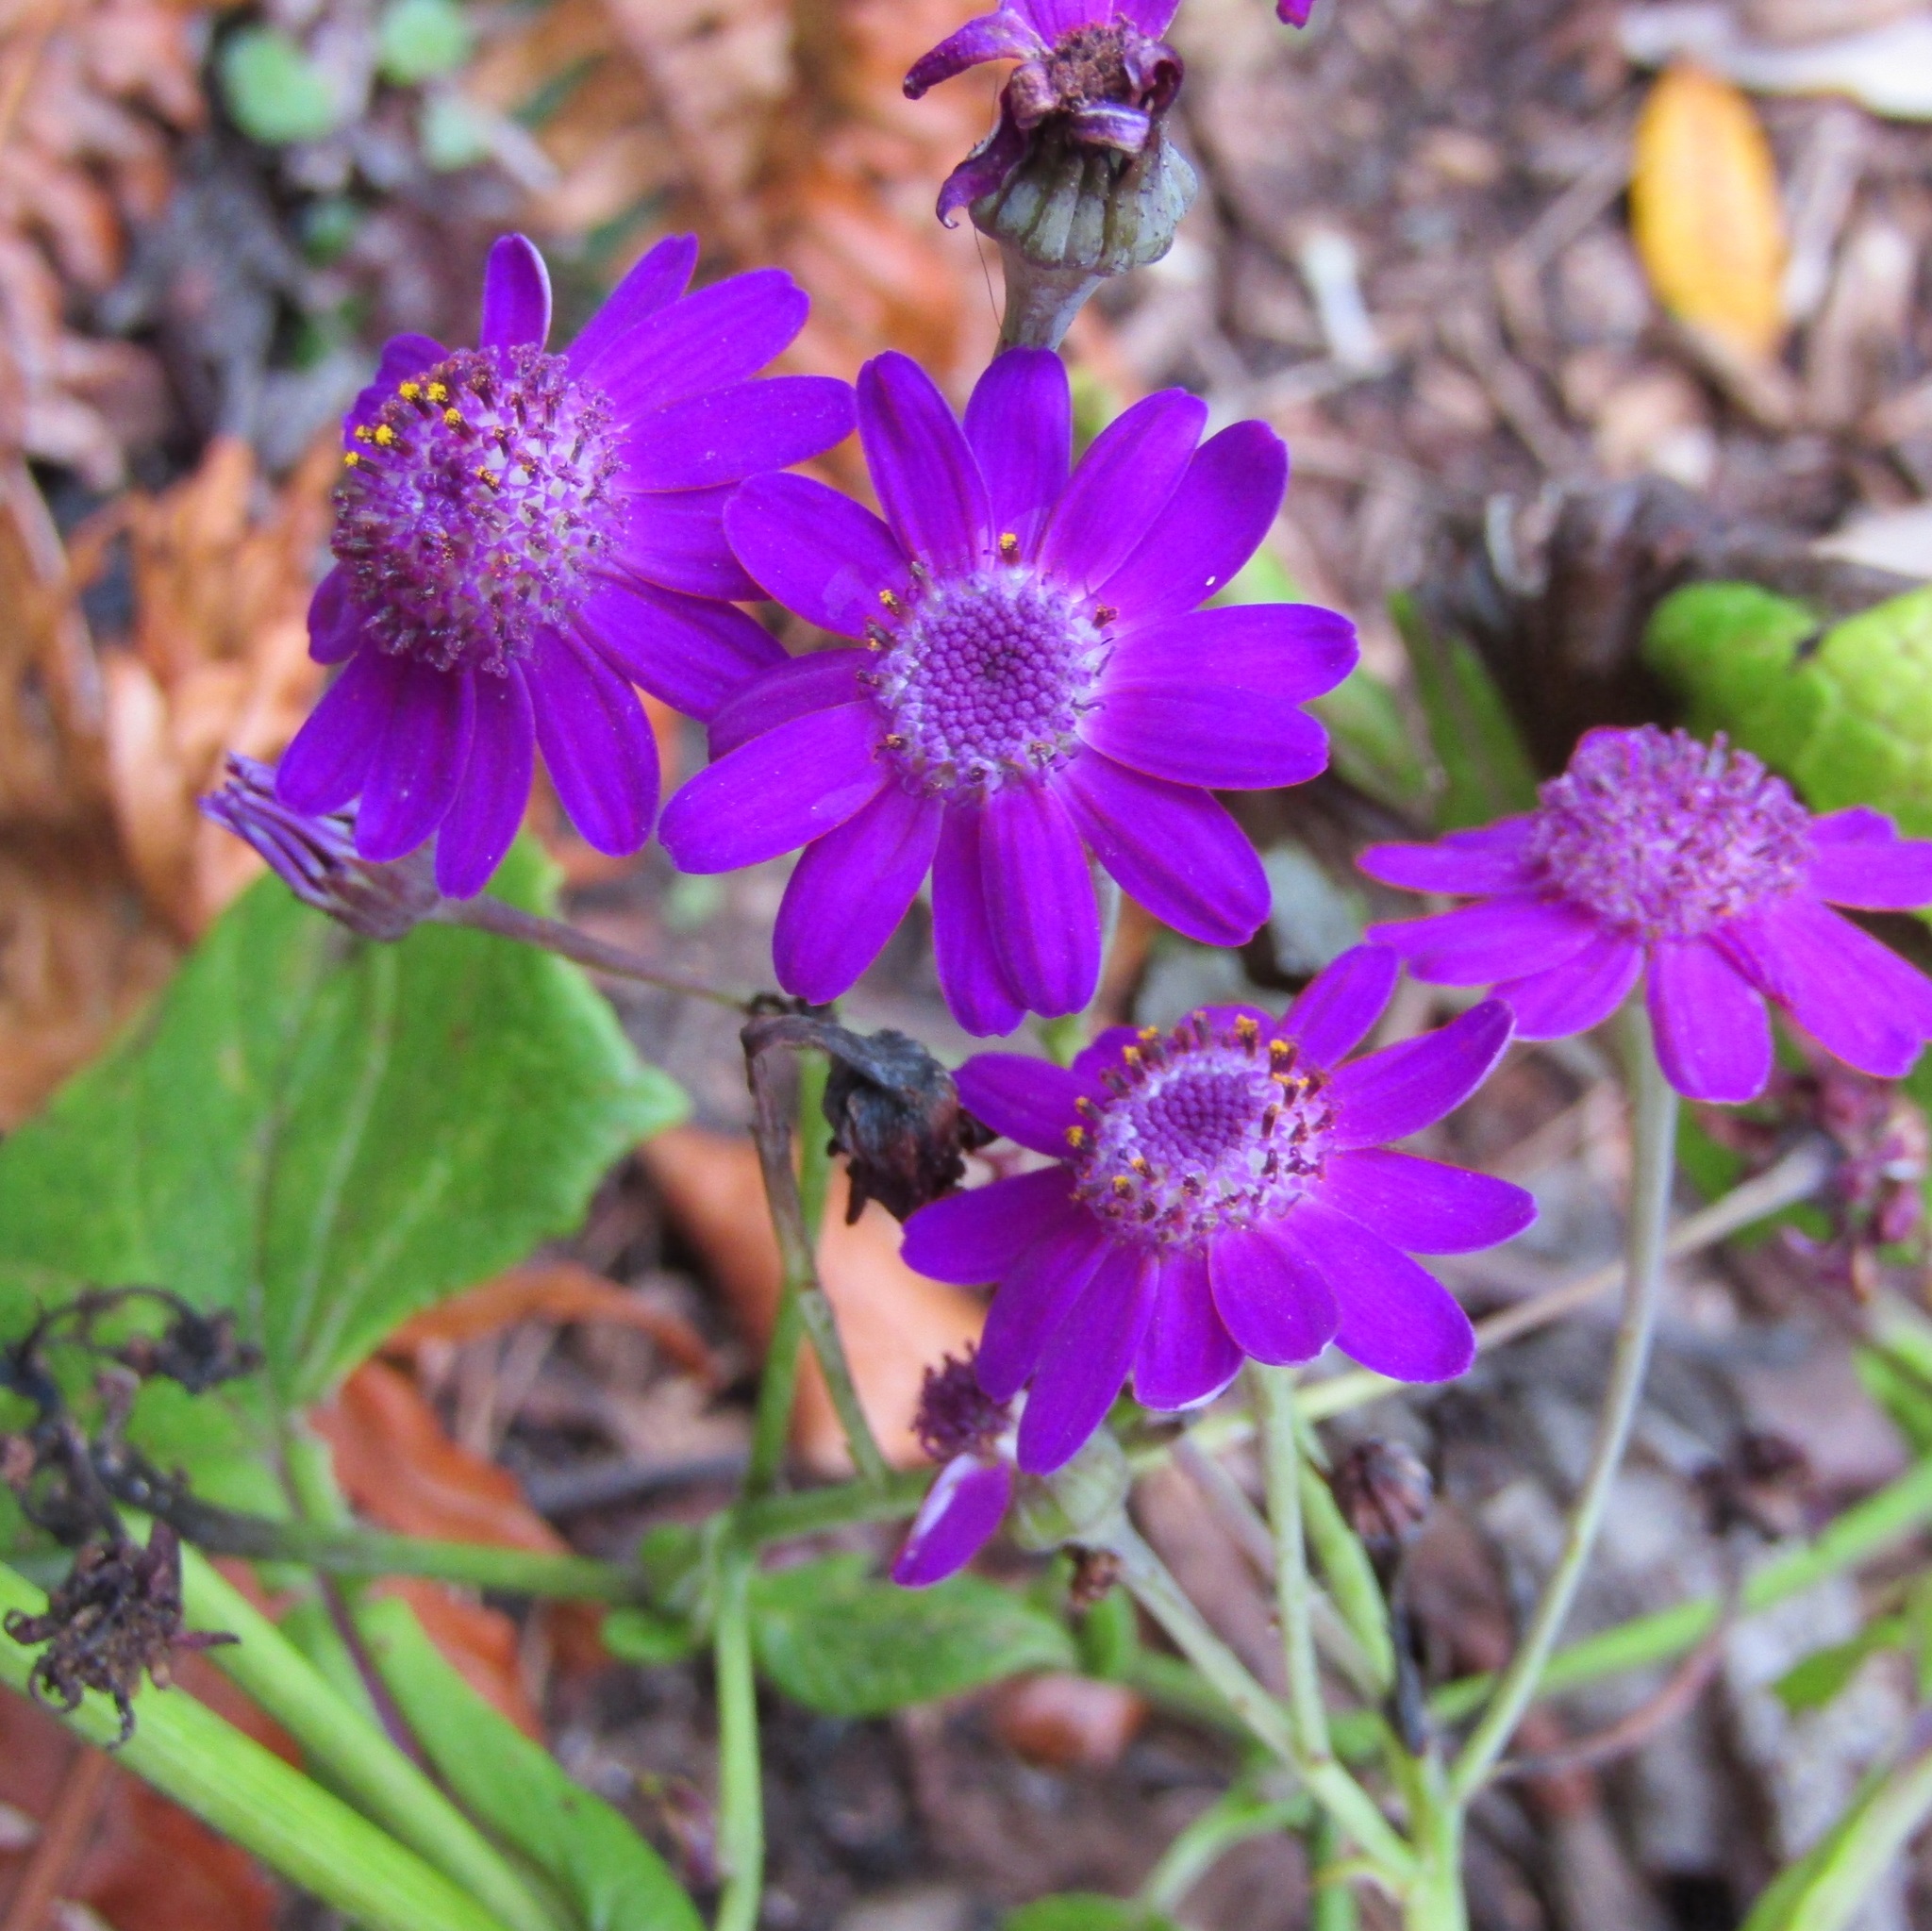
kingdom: Plantae
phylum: Tracheophyta
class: Magnoliopsida
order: Asterales
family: Asteraceae
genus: Pericallis
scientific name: Pericallis hybrida
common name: Cineraria
